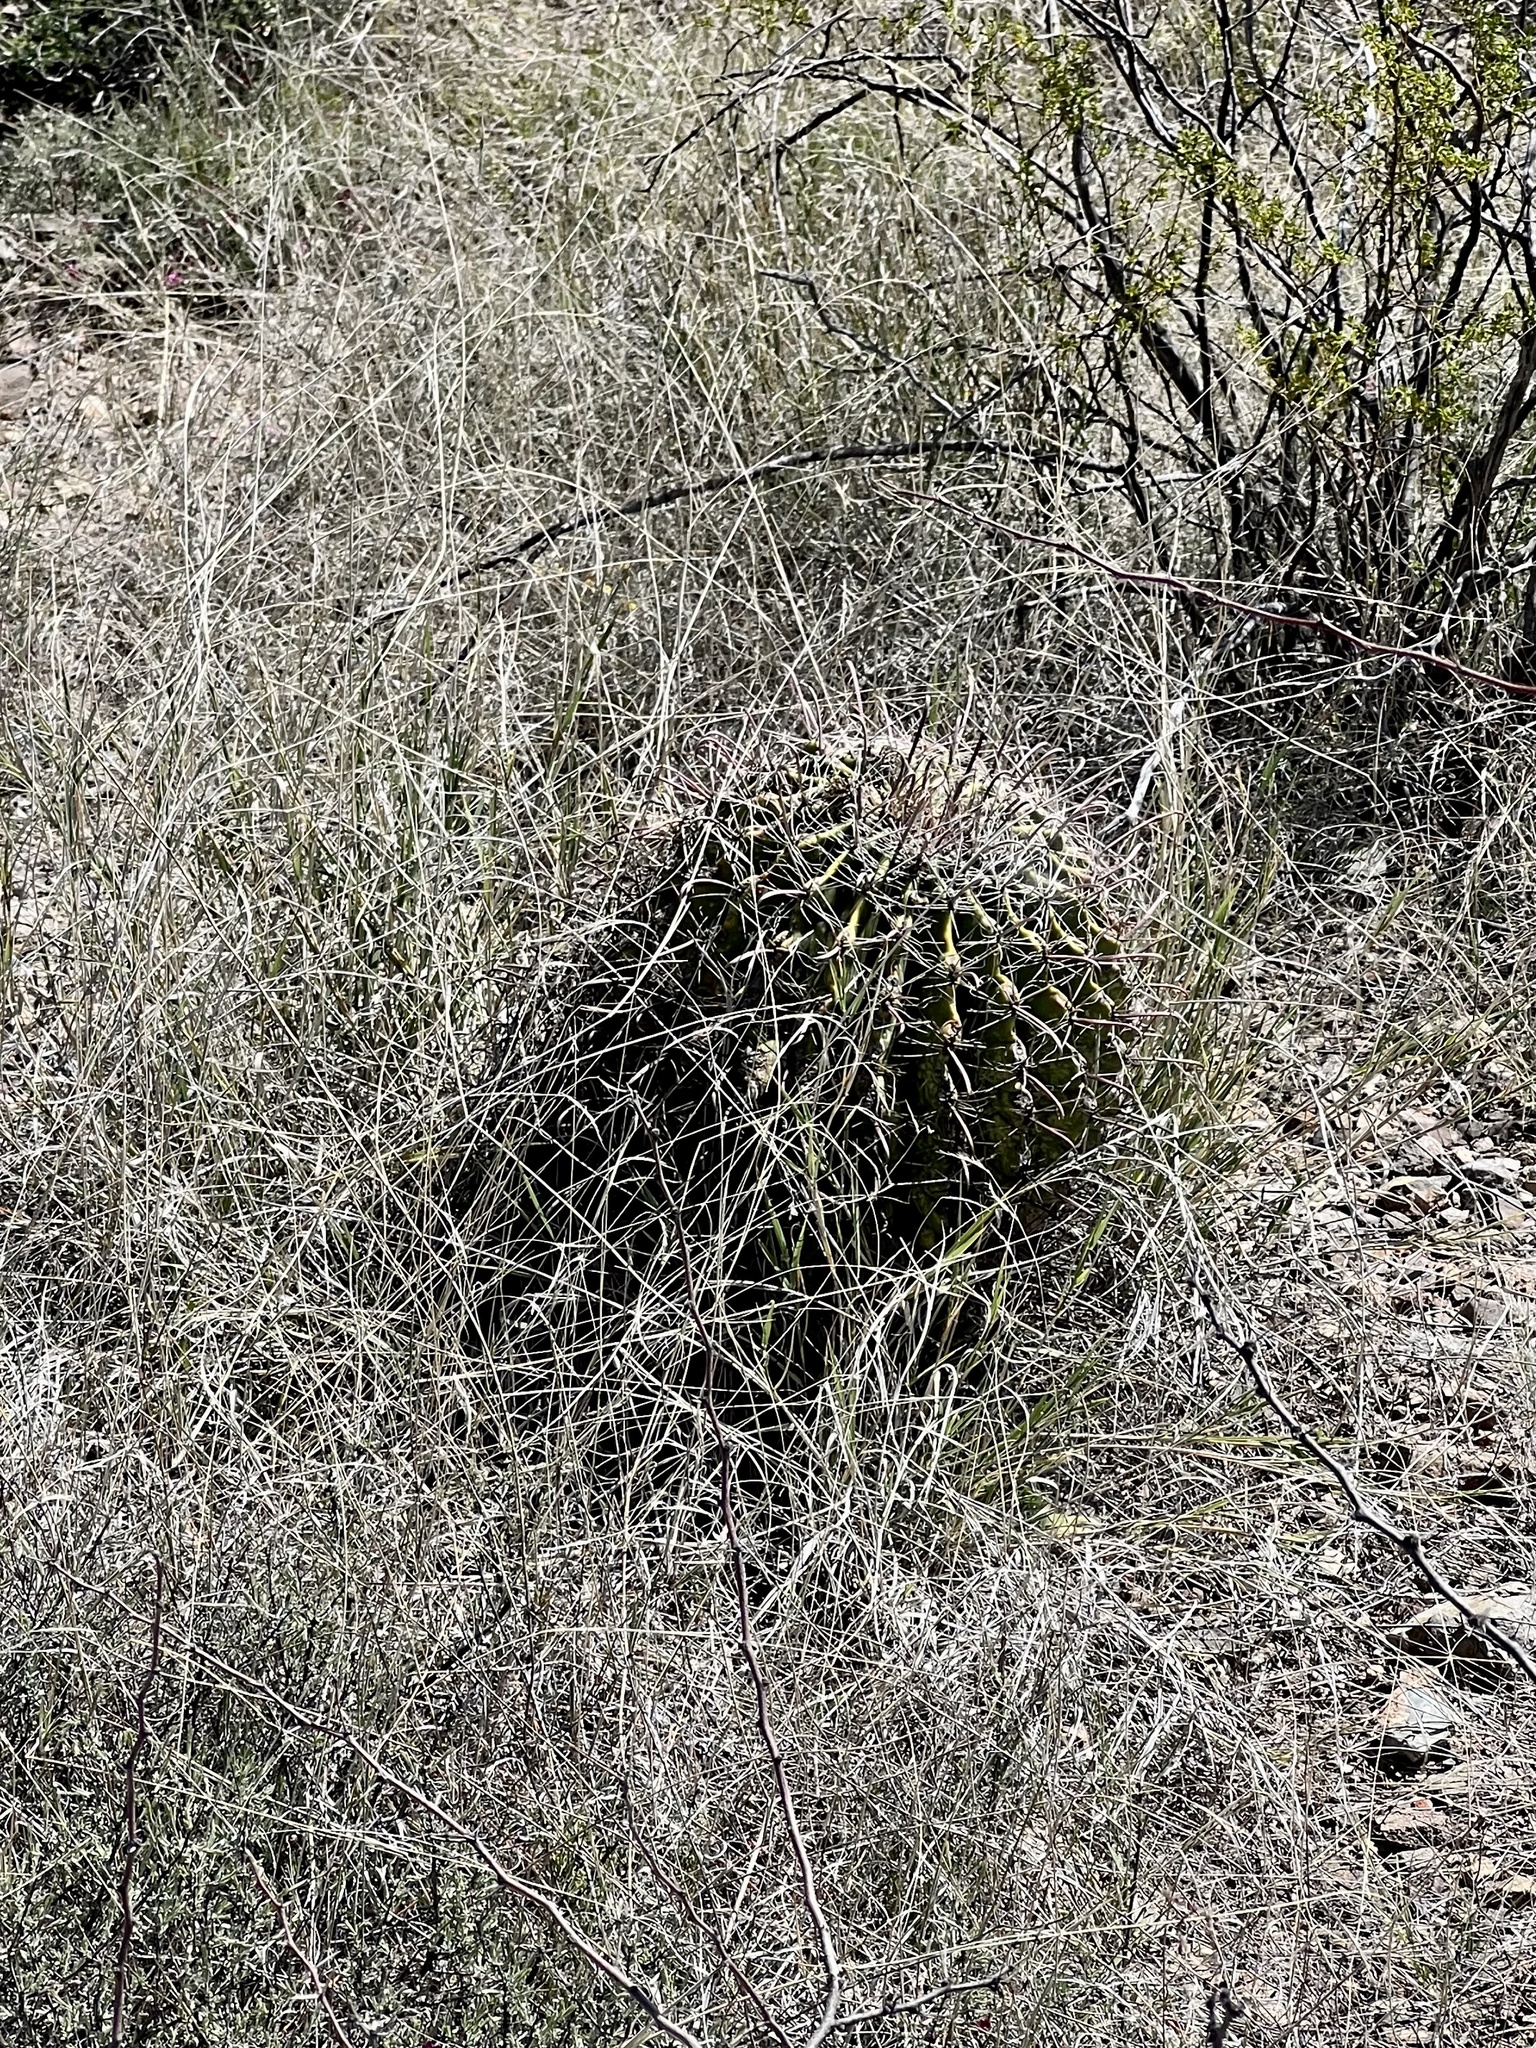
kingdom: Plantae
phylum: Tracheophyta
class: Magnoliopsida
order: Caryophyllales
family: Cactaceae
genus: Ferocactus
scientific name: Ferocactus wislizeni
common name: Candy barrel cactus
